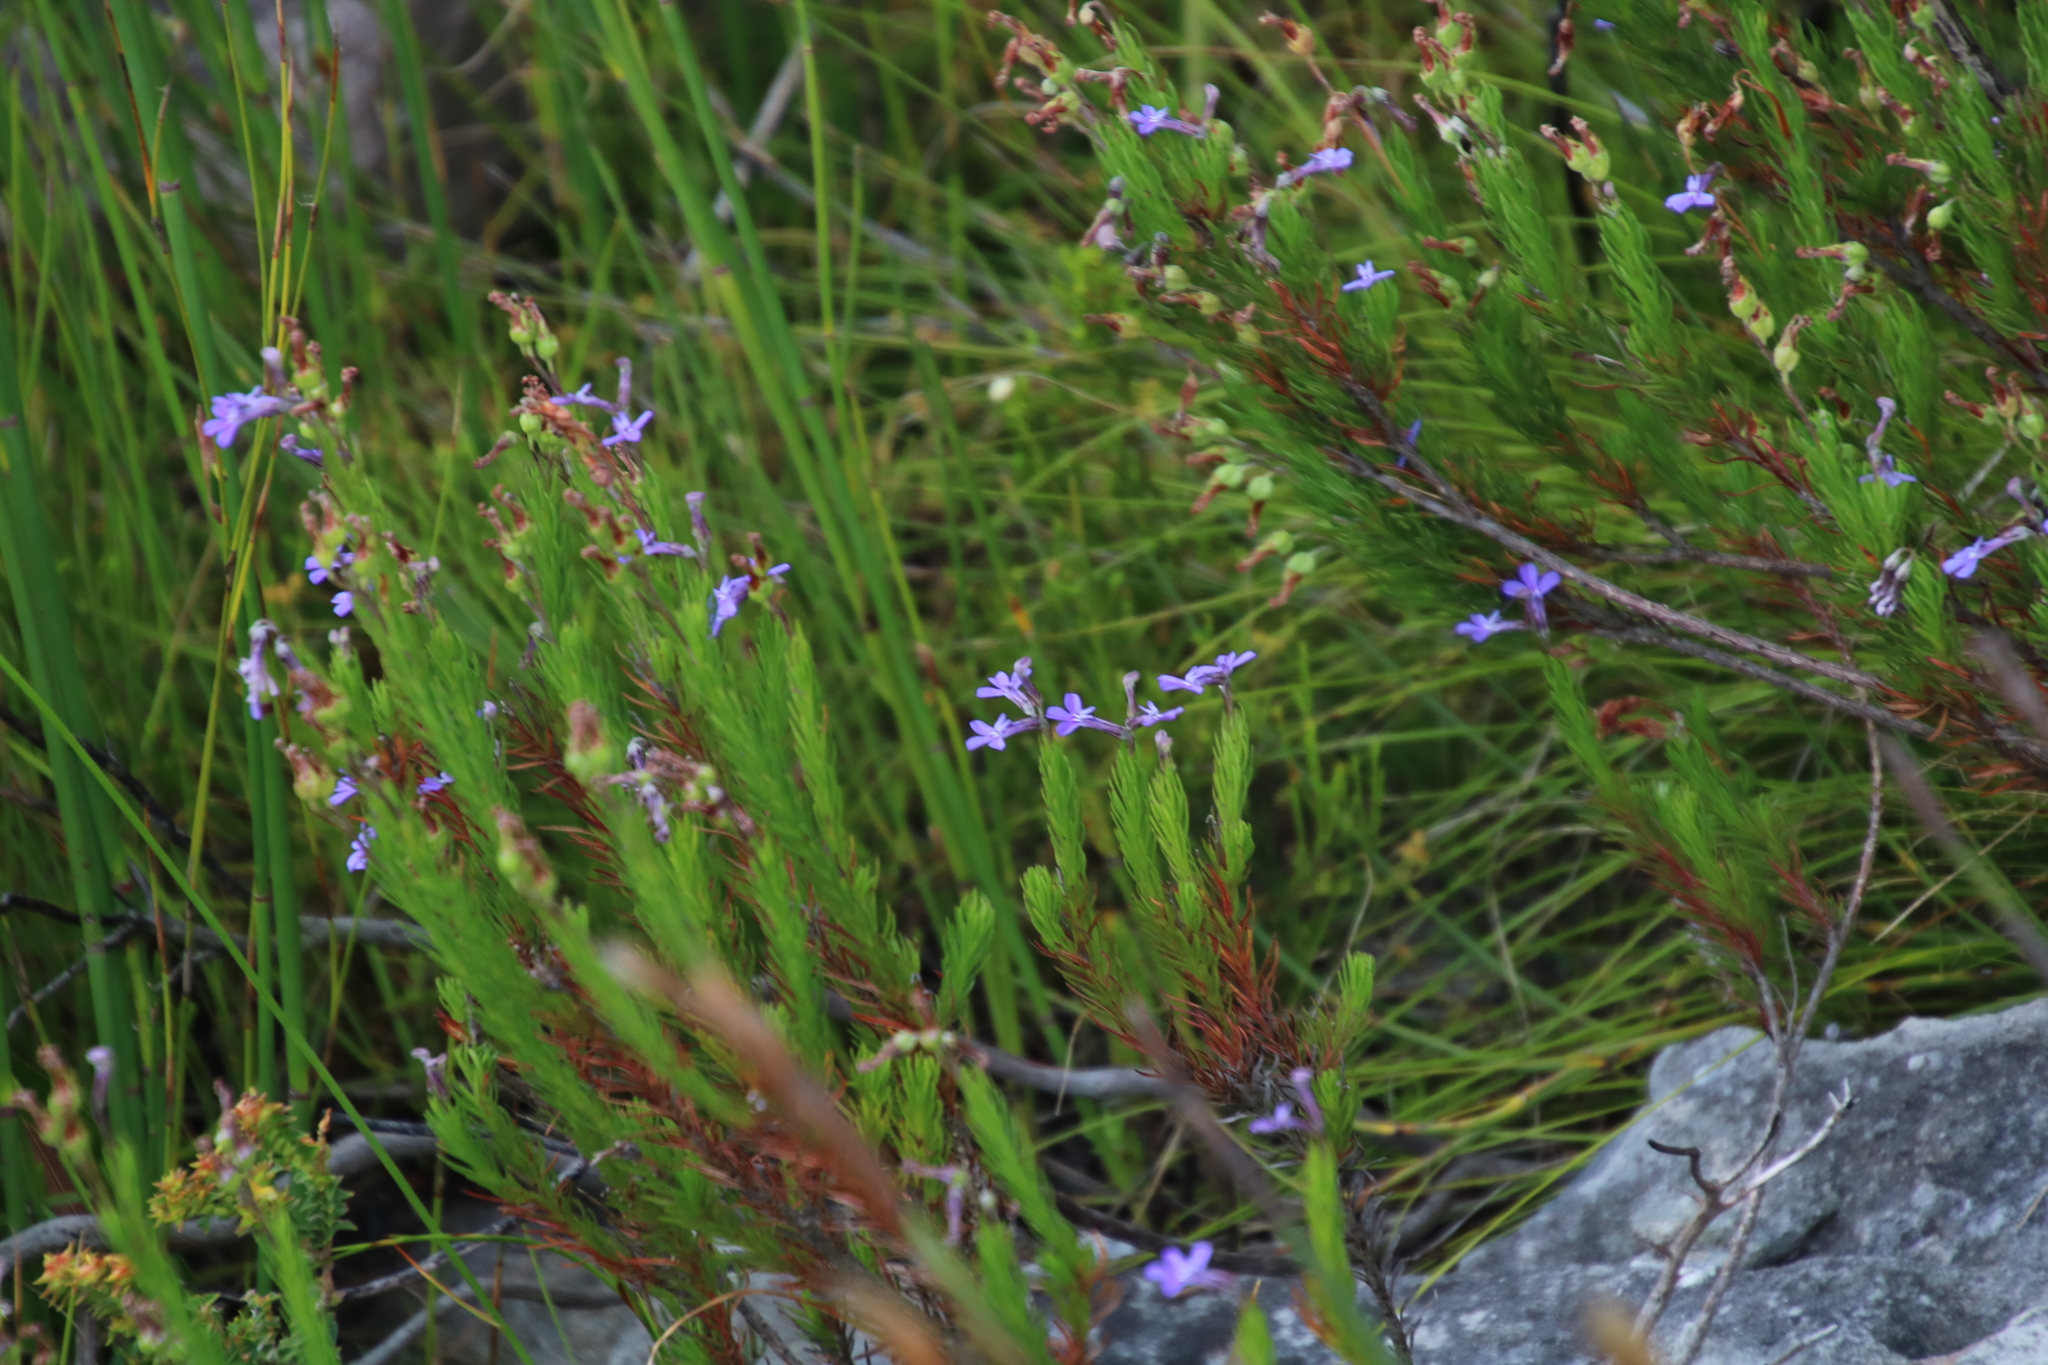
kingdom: Plantae
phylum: Tracheophyta
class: Magnoliopsida
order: Asterales
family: Campanulaceae
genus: Lobelia
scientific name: Lobelia pinifolia
